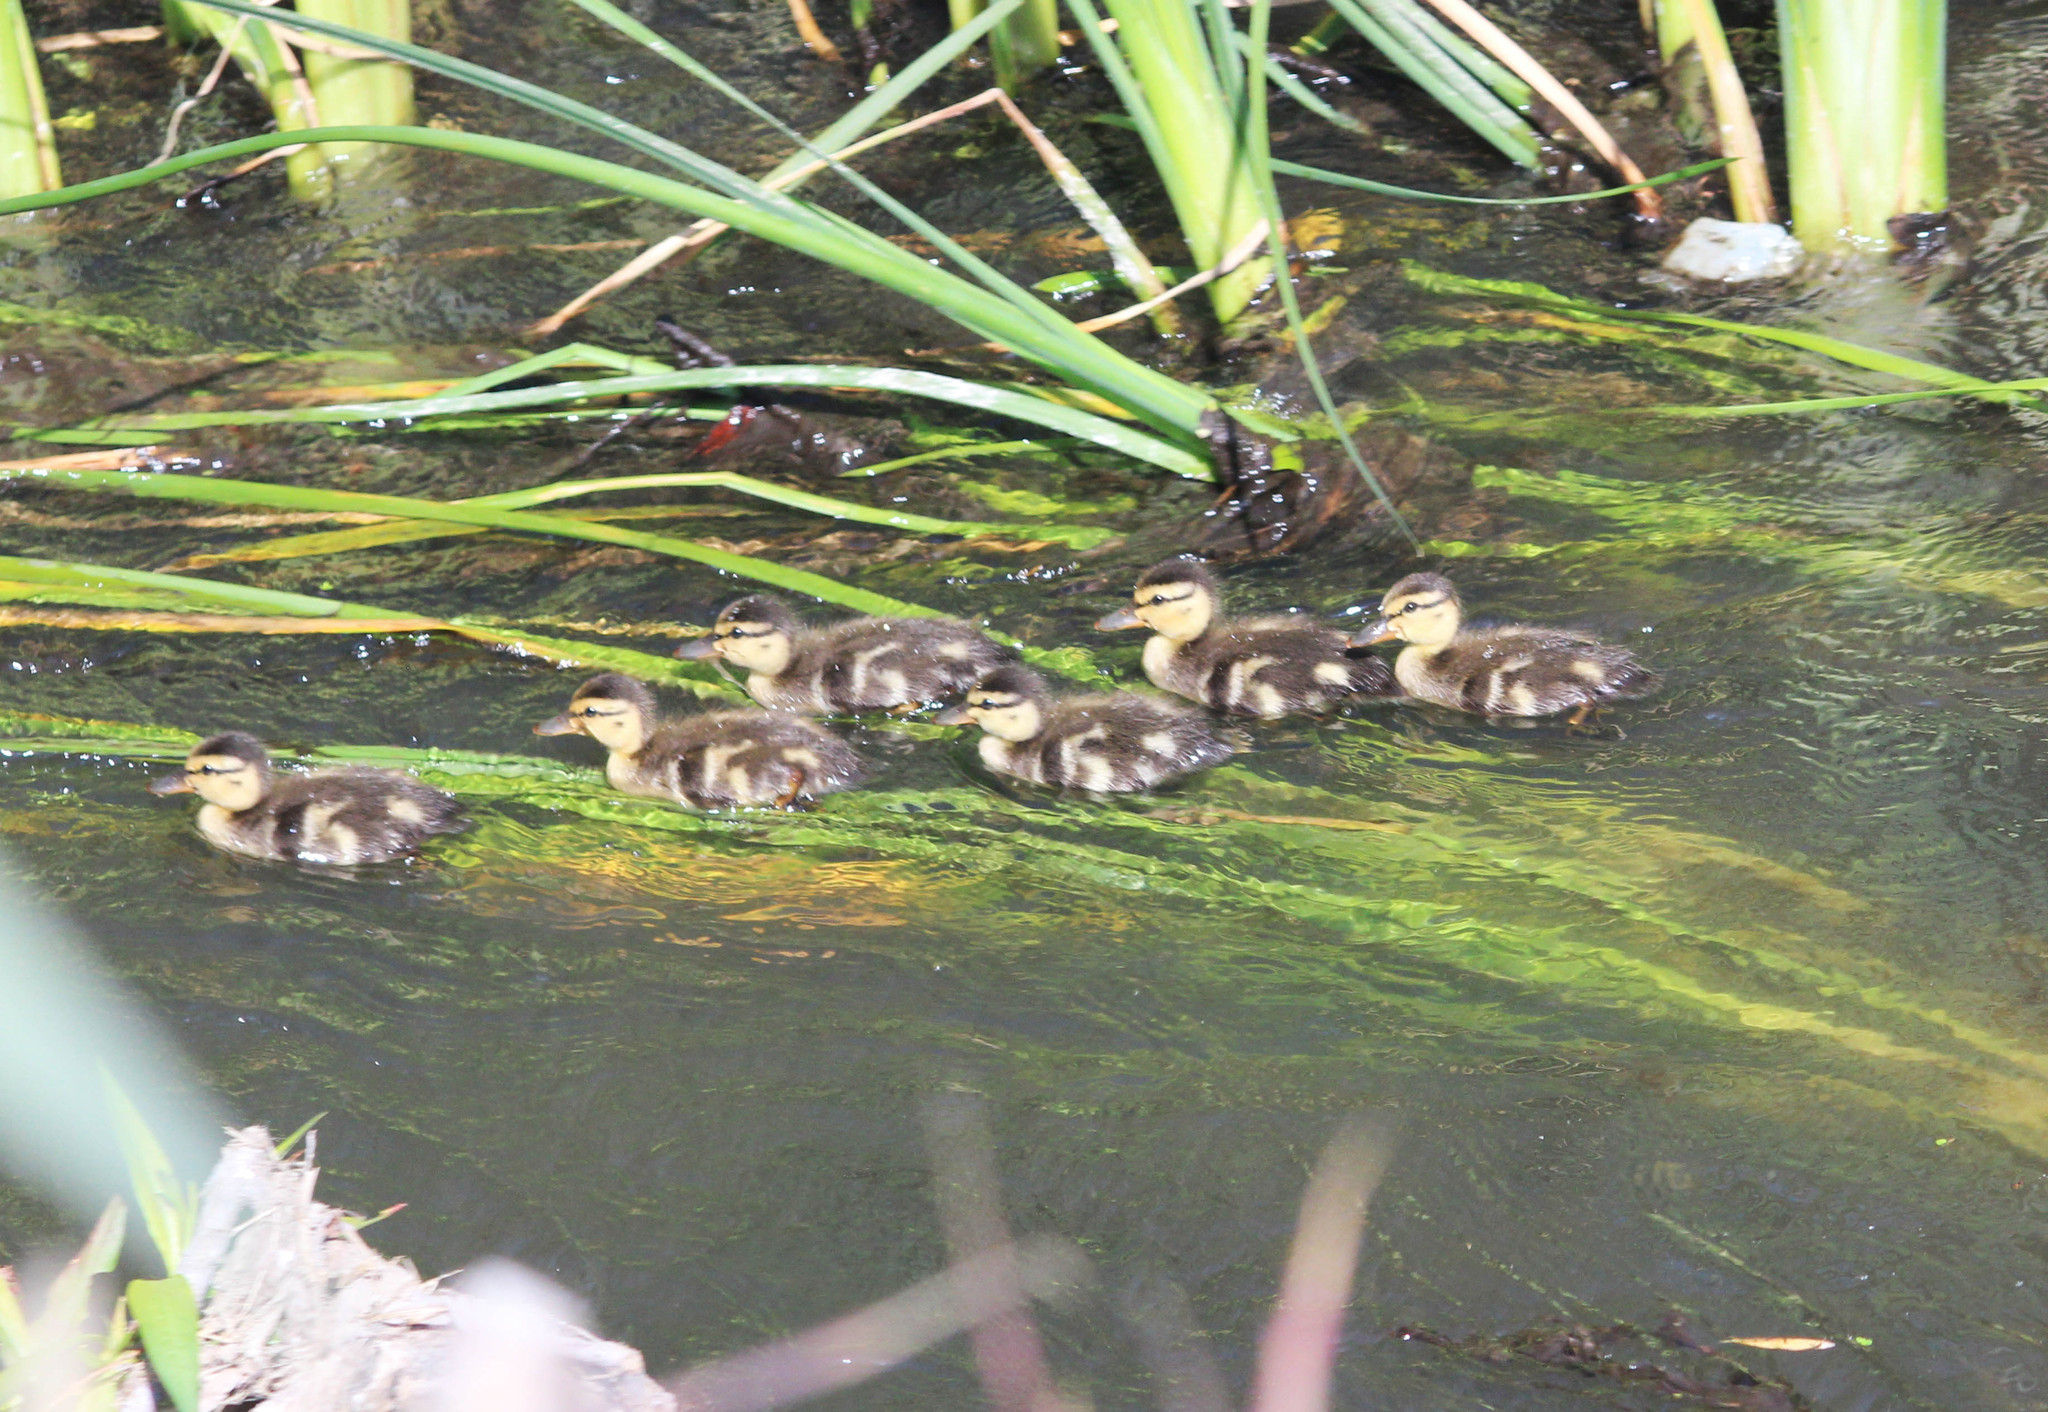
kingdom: Animalia
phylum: Chordata
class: Aves
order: Anseriformes
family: Anatidae
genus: Anas
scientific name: Anas platyrhynchos
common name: Mallard
